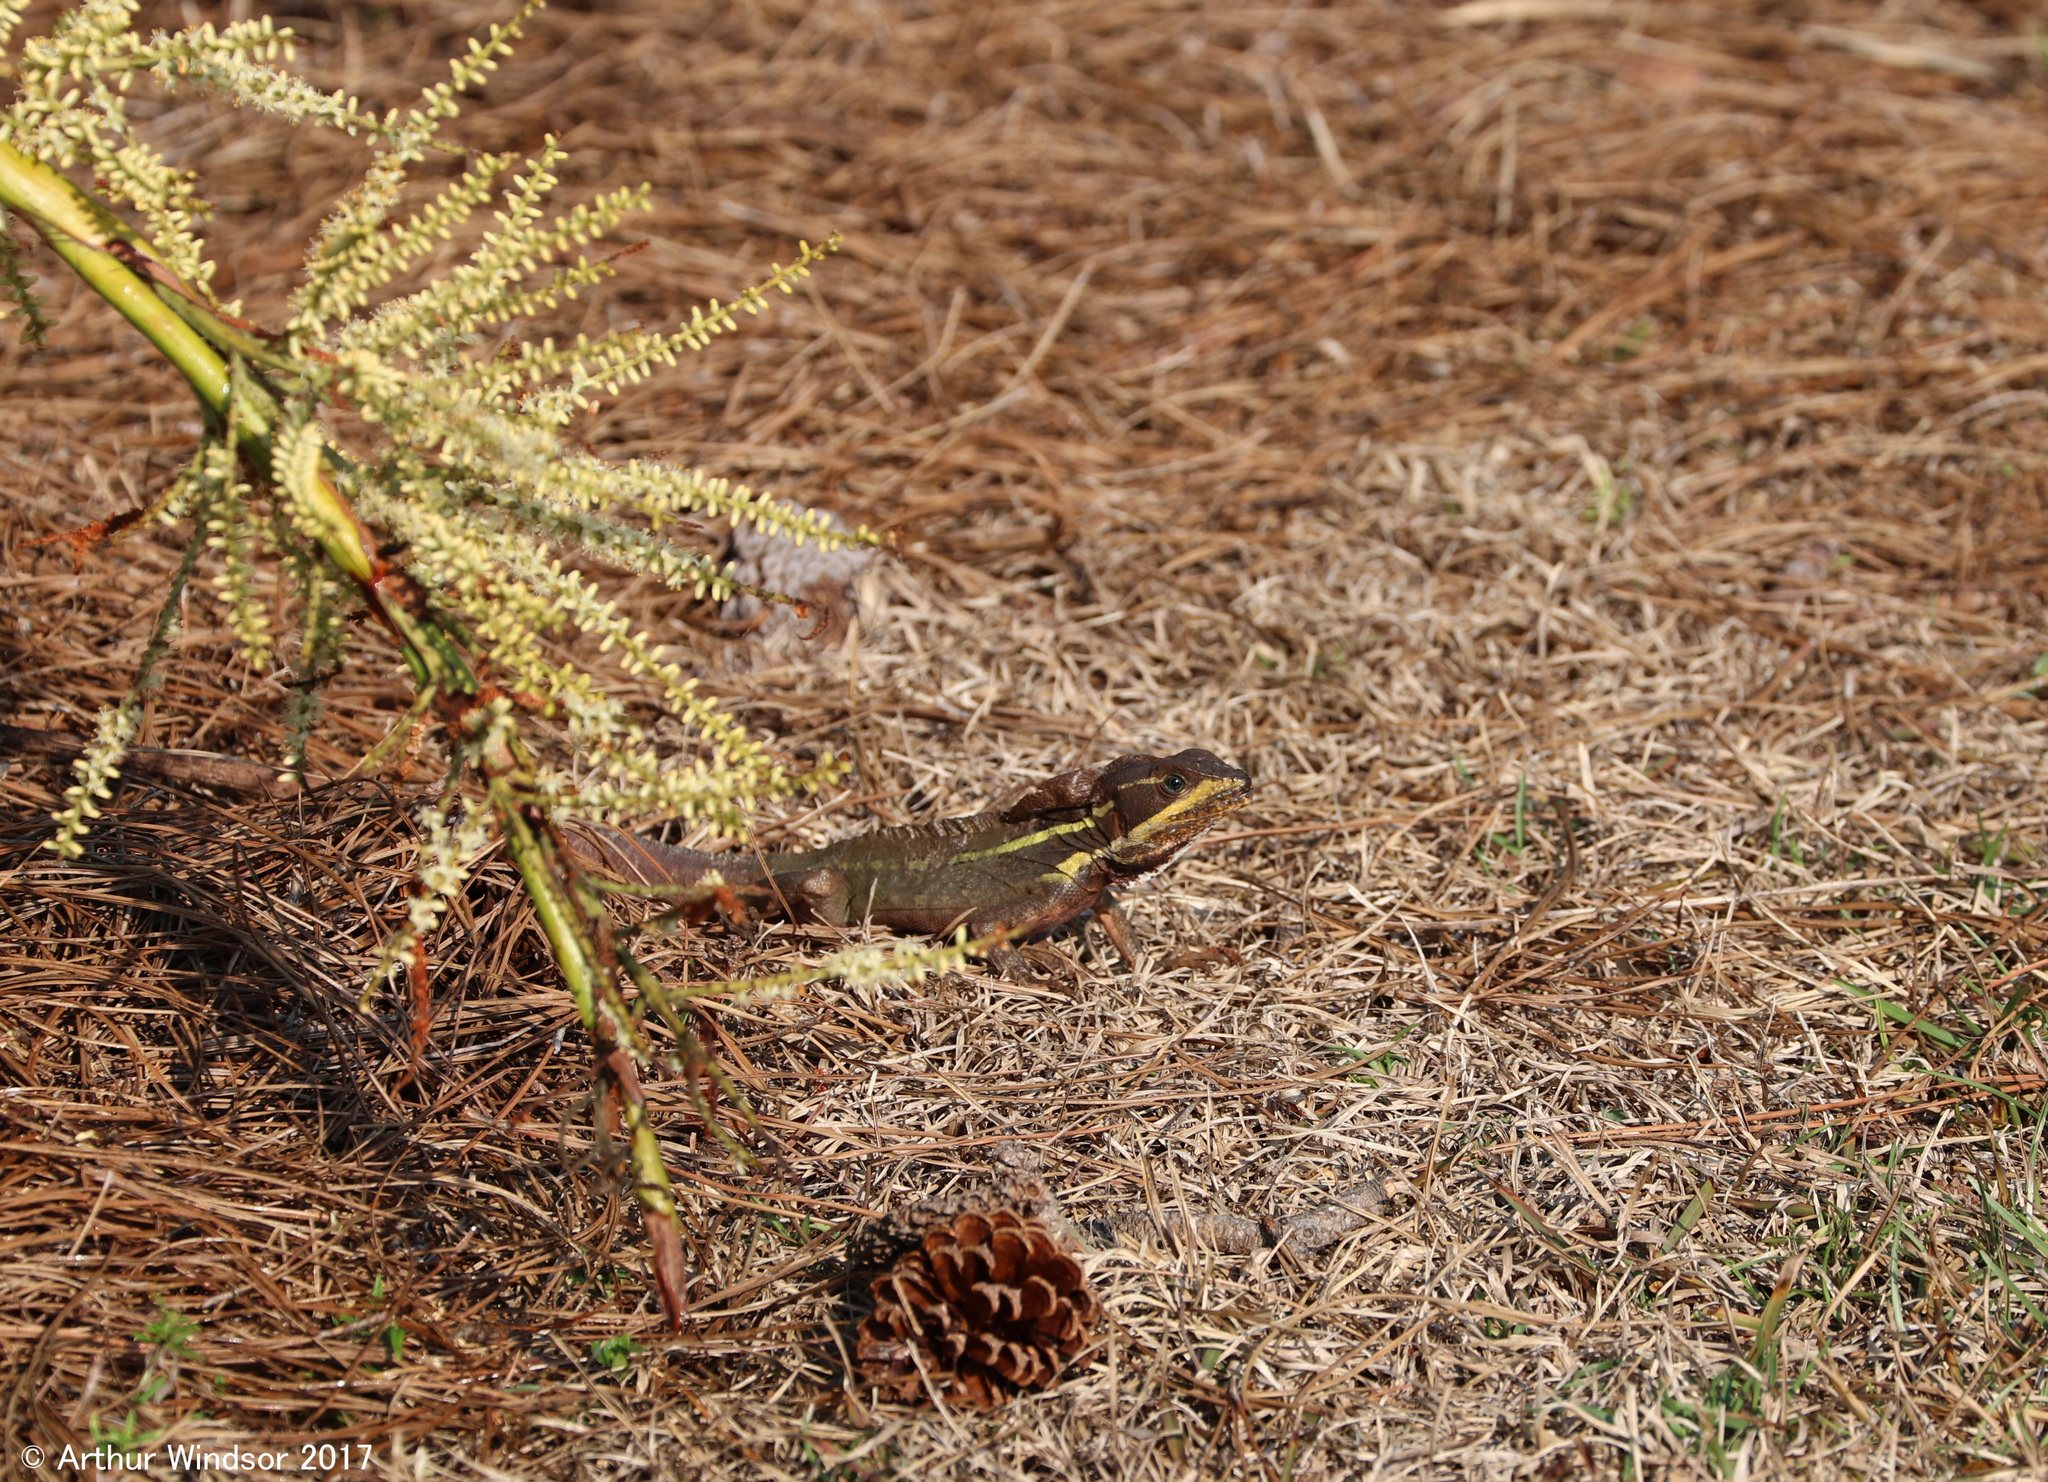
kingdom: Animalia
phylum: Chordata
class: Squamata
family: Corytophanidae
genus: Basiliscus
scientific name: Basiliscus vittatus
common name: Brown basilisk
